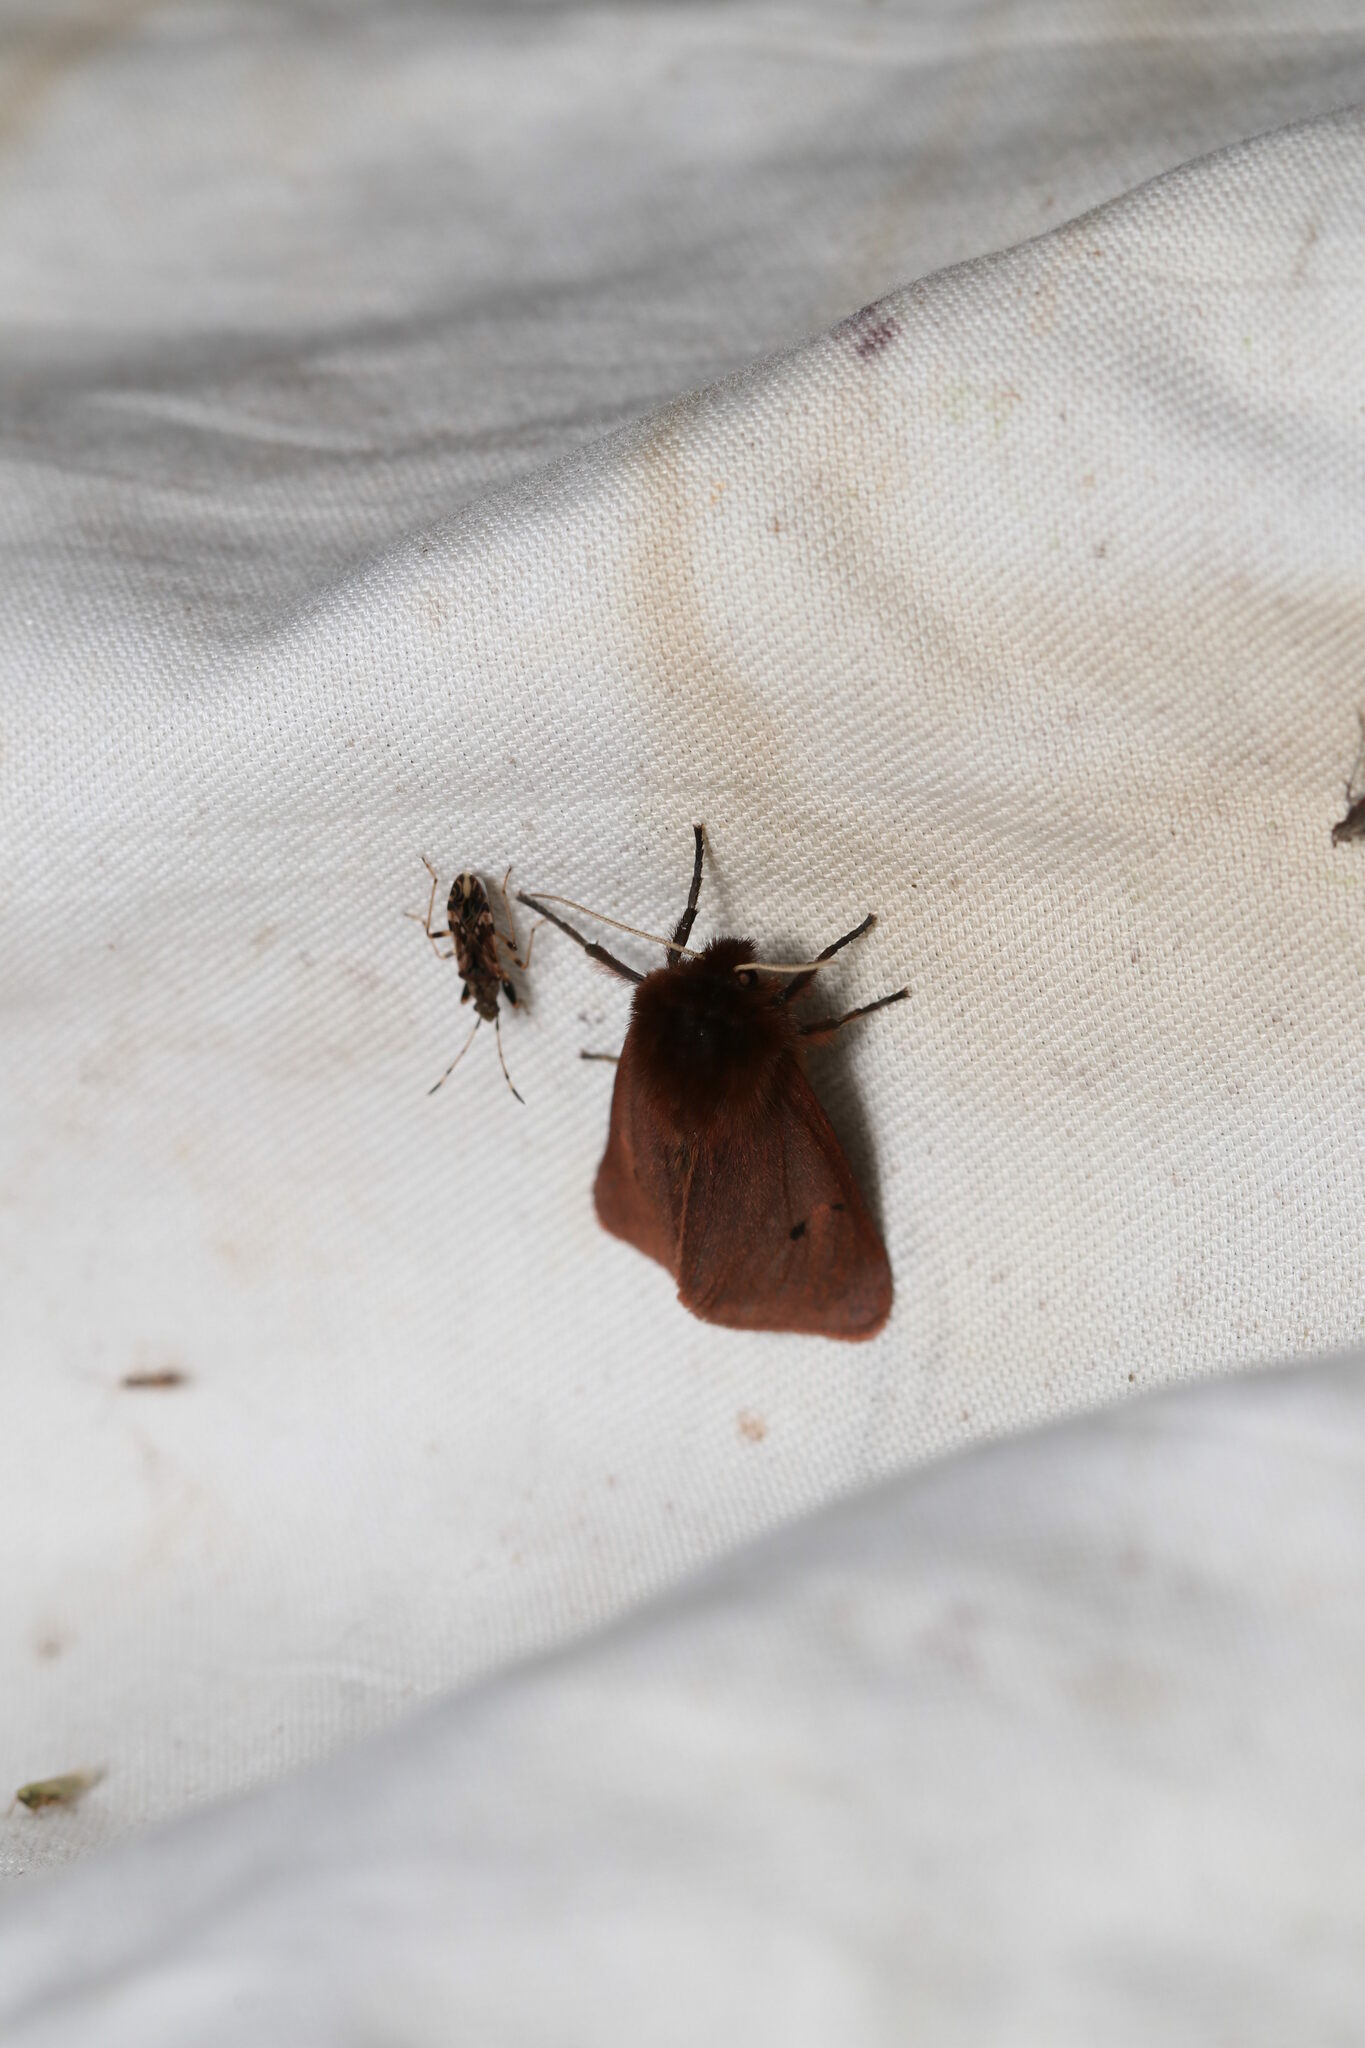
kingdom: Animalia
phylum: Arthropoda
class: Insecta
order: Lepidoptera
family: Erebidae
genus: Phragmatobia
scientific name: Phragmatobia fuliginosa
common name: Ruby tiger
